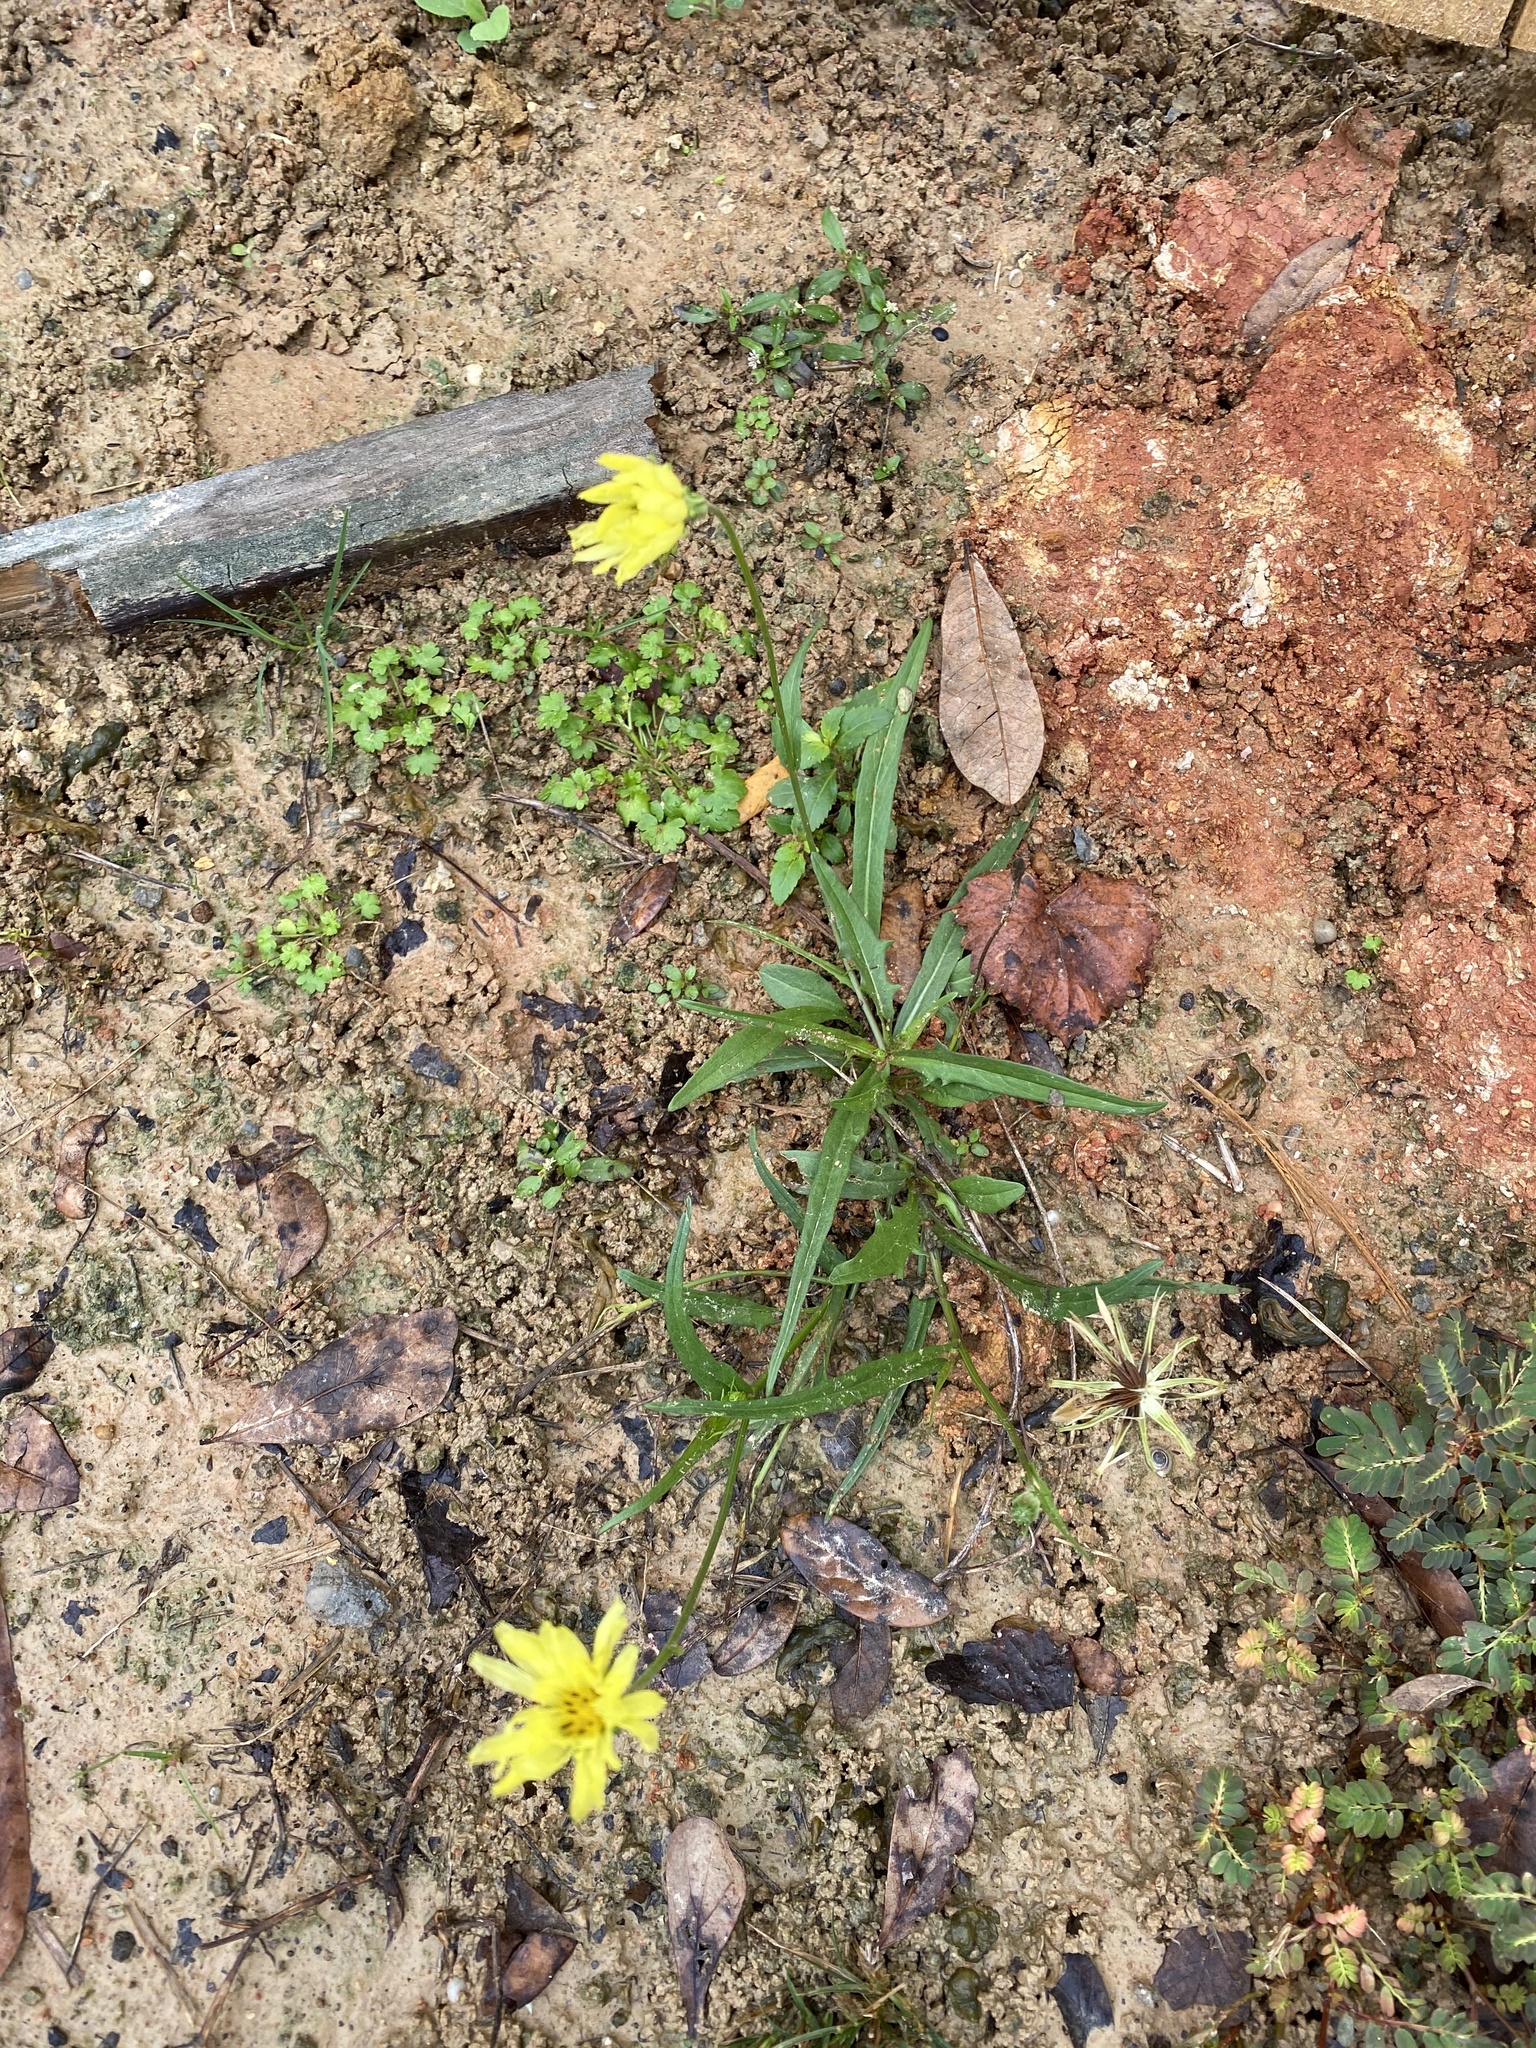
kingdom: Plantae
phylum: Tracheophyta
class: Magnoliopsida
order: Asterales
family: Asteraceae
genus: Pyrrhopappus
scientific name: Pyrrhopappus carolinianus
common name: Carolina desert-chicory
